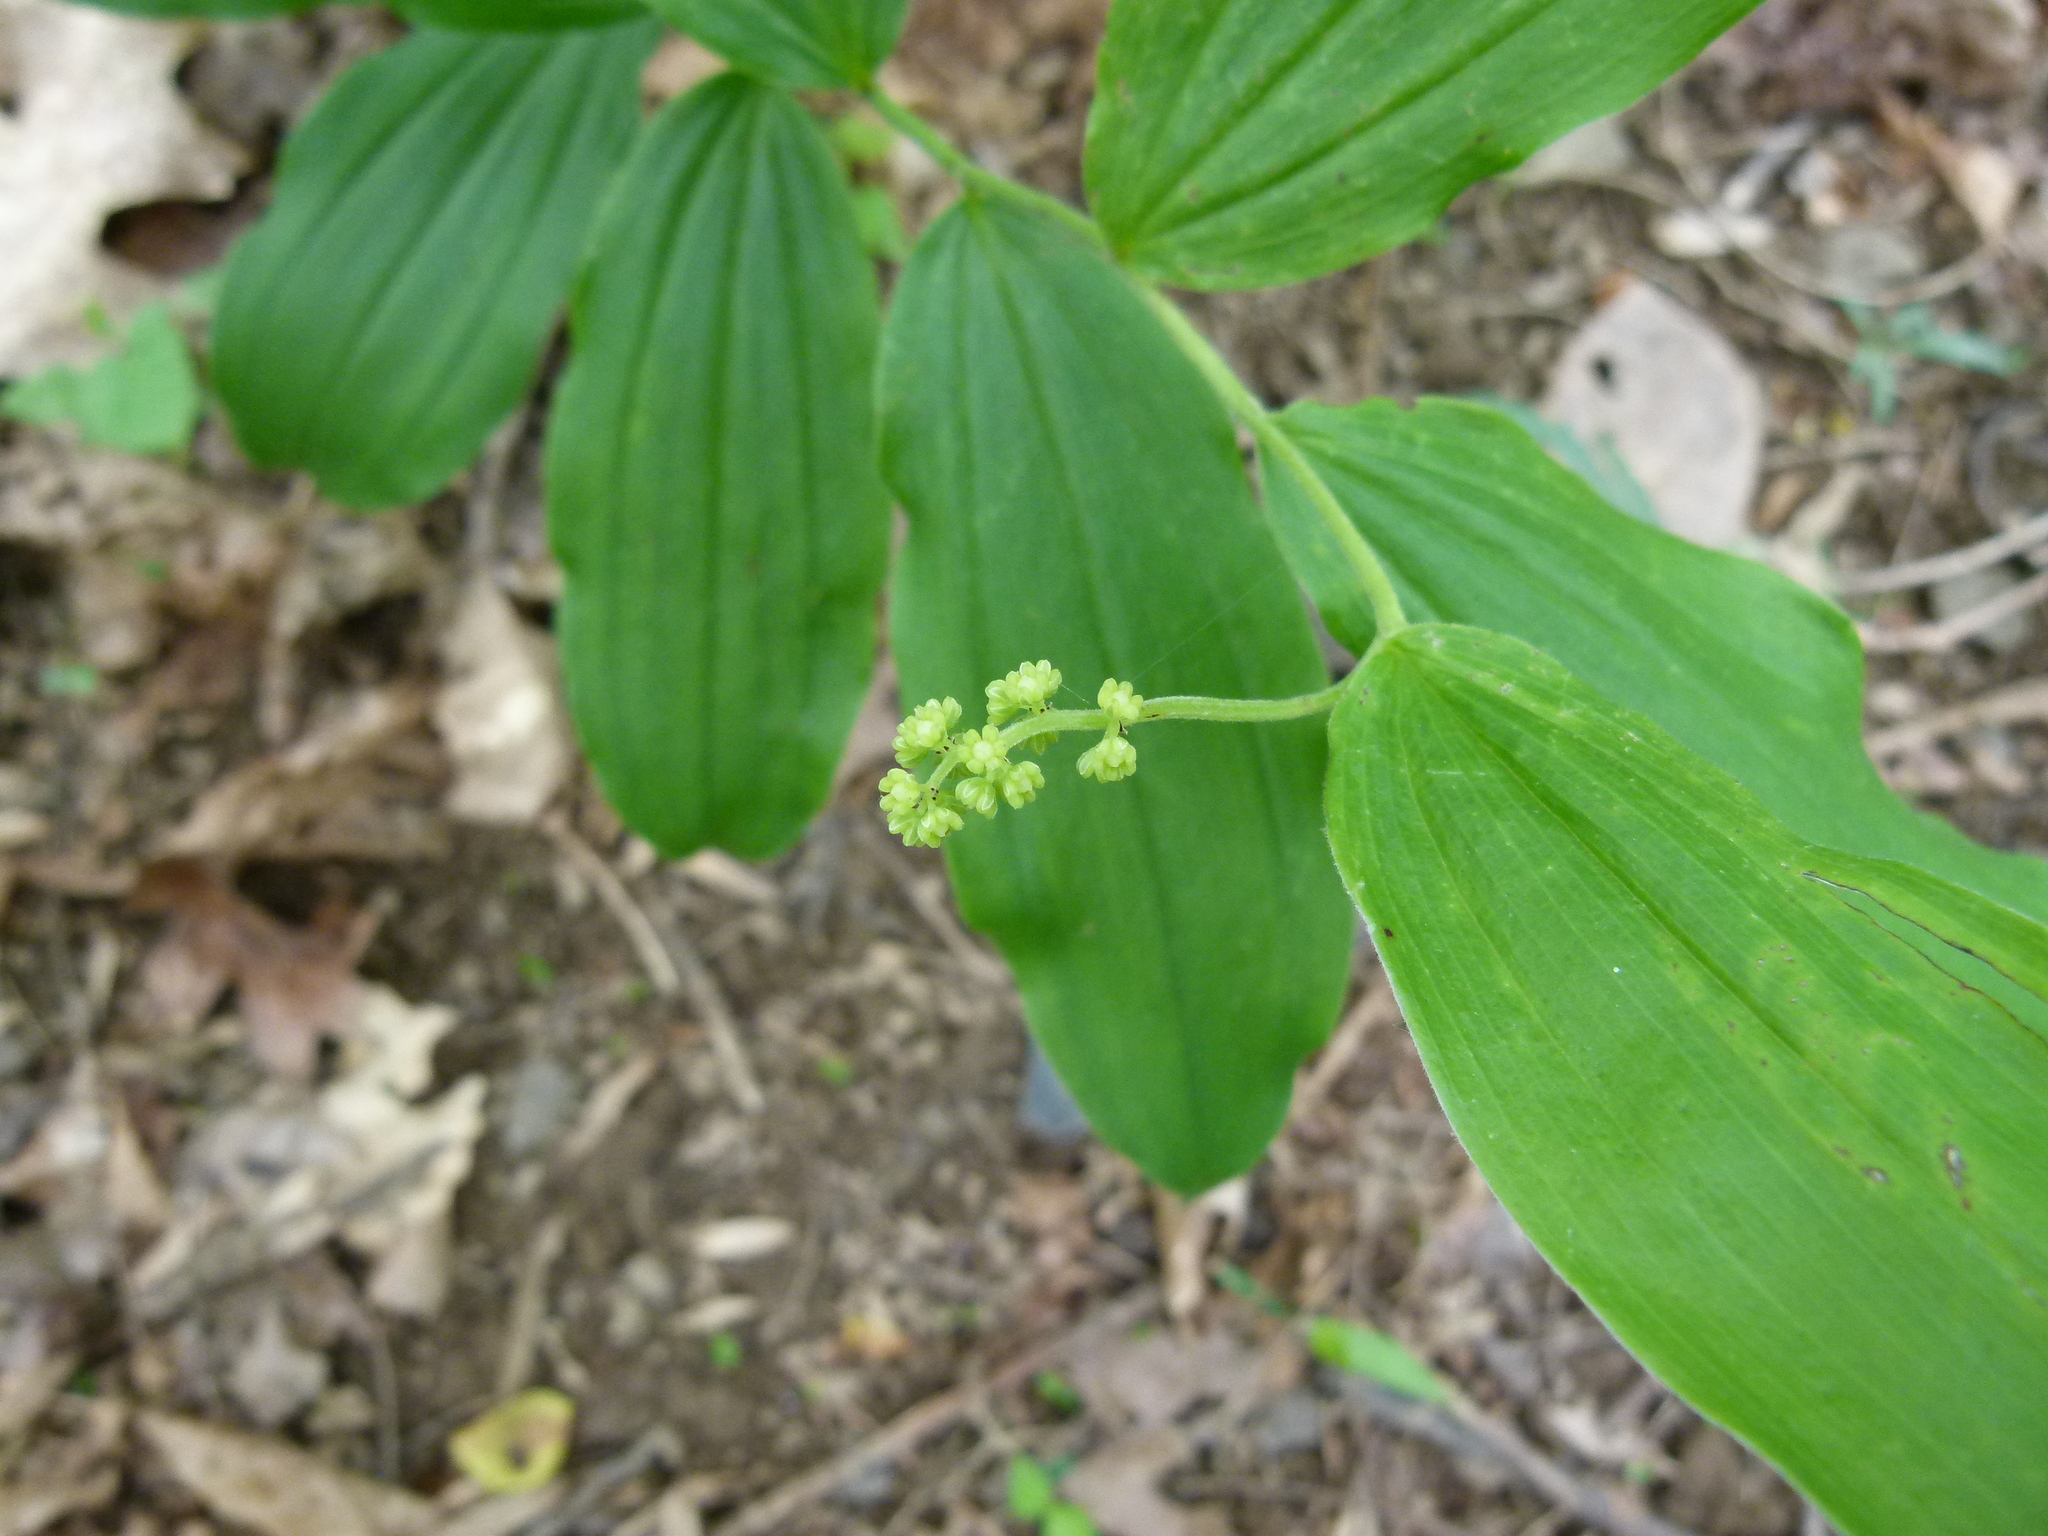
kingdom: Plantae
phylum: Tracheophyta
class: Liliopsida
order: Asparagales
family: Asparagaceae
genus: Maianthemum
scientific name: Maianthemum racemosum
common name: False spikenard
